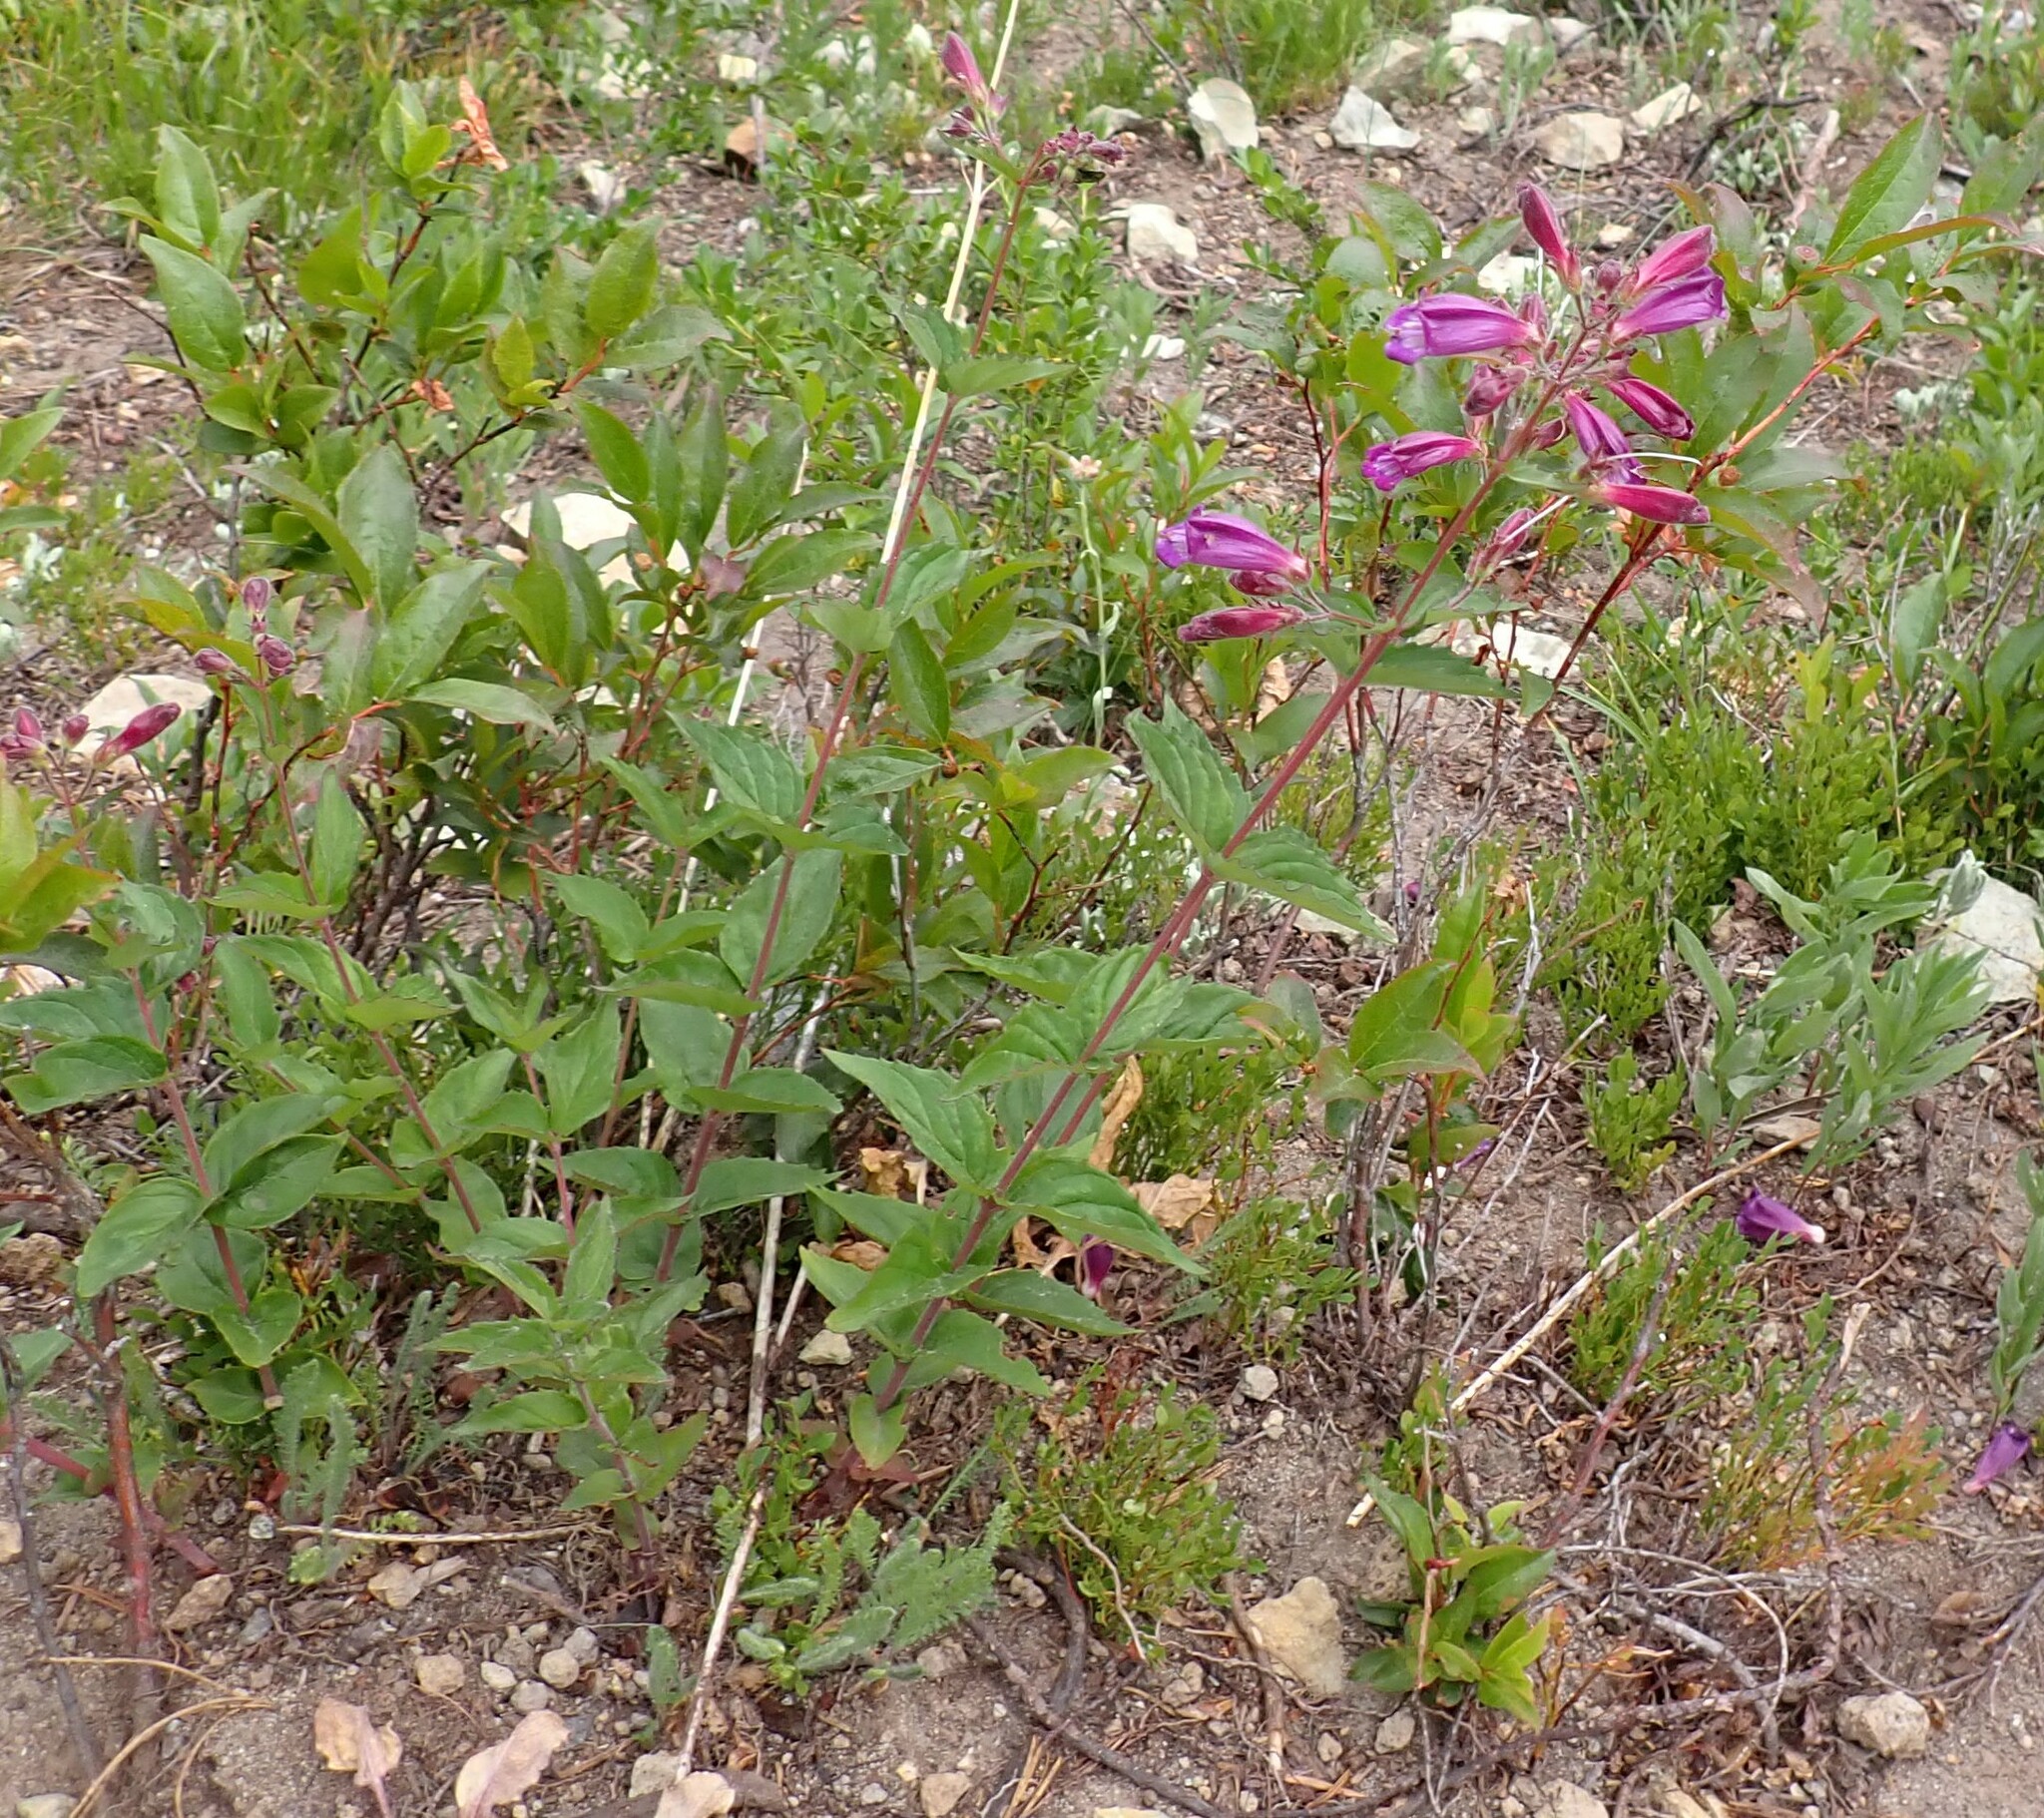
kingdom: Plantae
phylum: Tracheophyta
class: Magnoliopsida
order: Lamiales
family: Plantaginaceae
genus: Nothochelone
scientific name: Nothochelone nemorosa
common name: Woodland beardtongue
